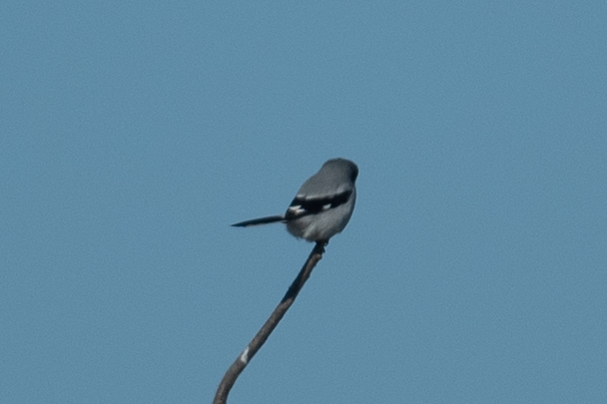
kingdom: Animalia
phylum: Chordata
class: Aves
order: Passeriformes
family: Laniidae
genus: Lanius
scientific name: Lanius ludovicianus
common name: Loggerhead shrike
